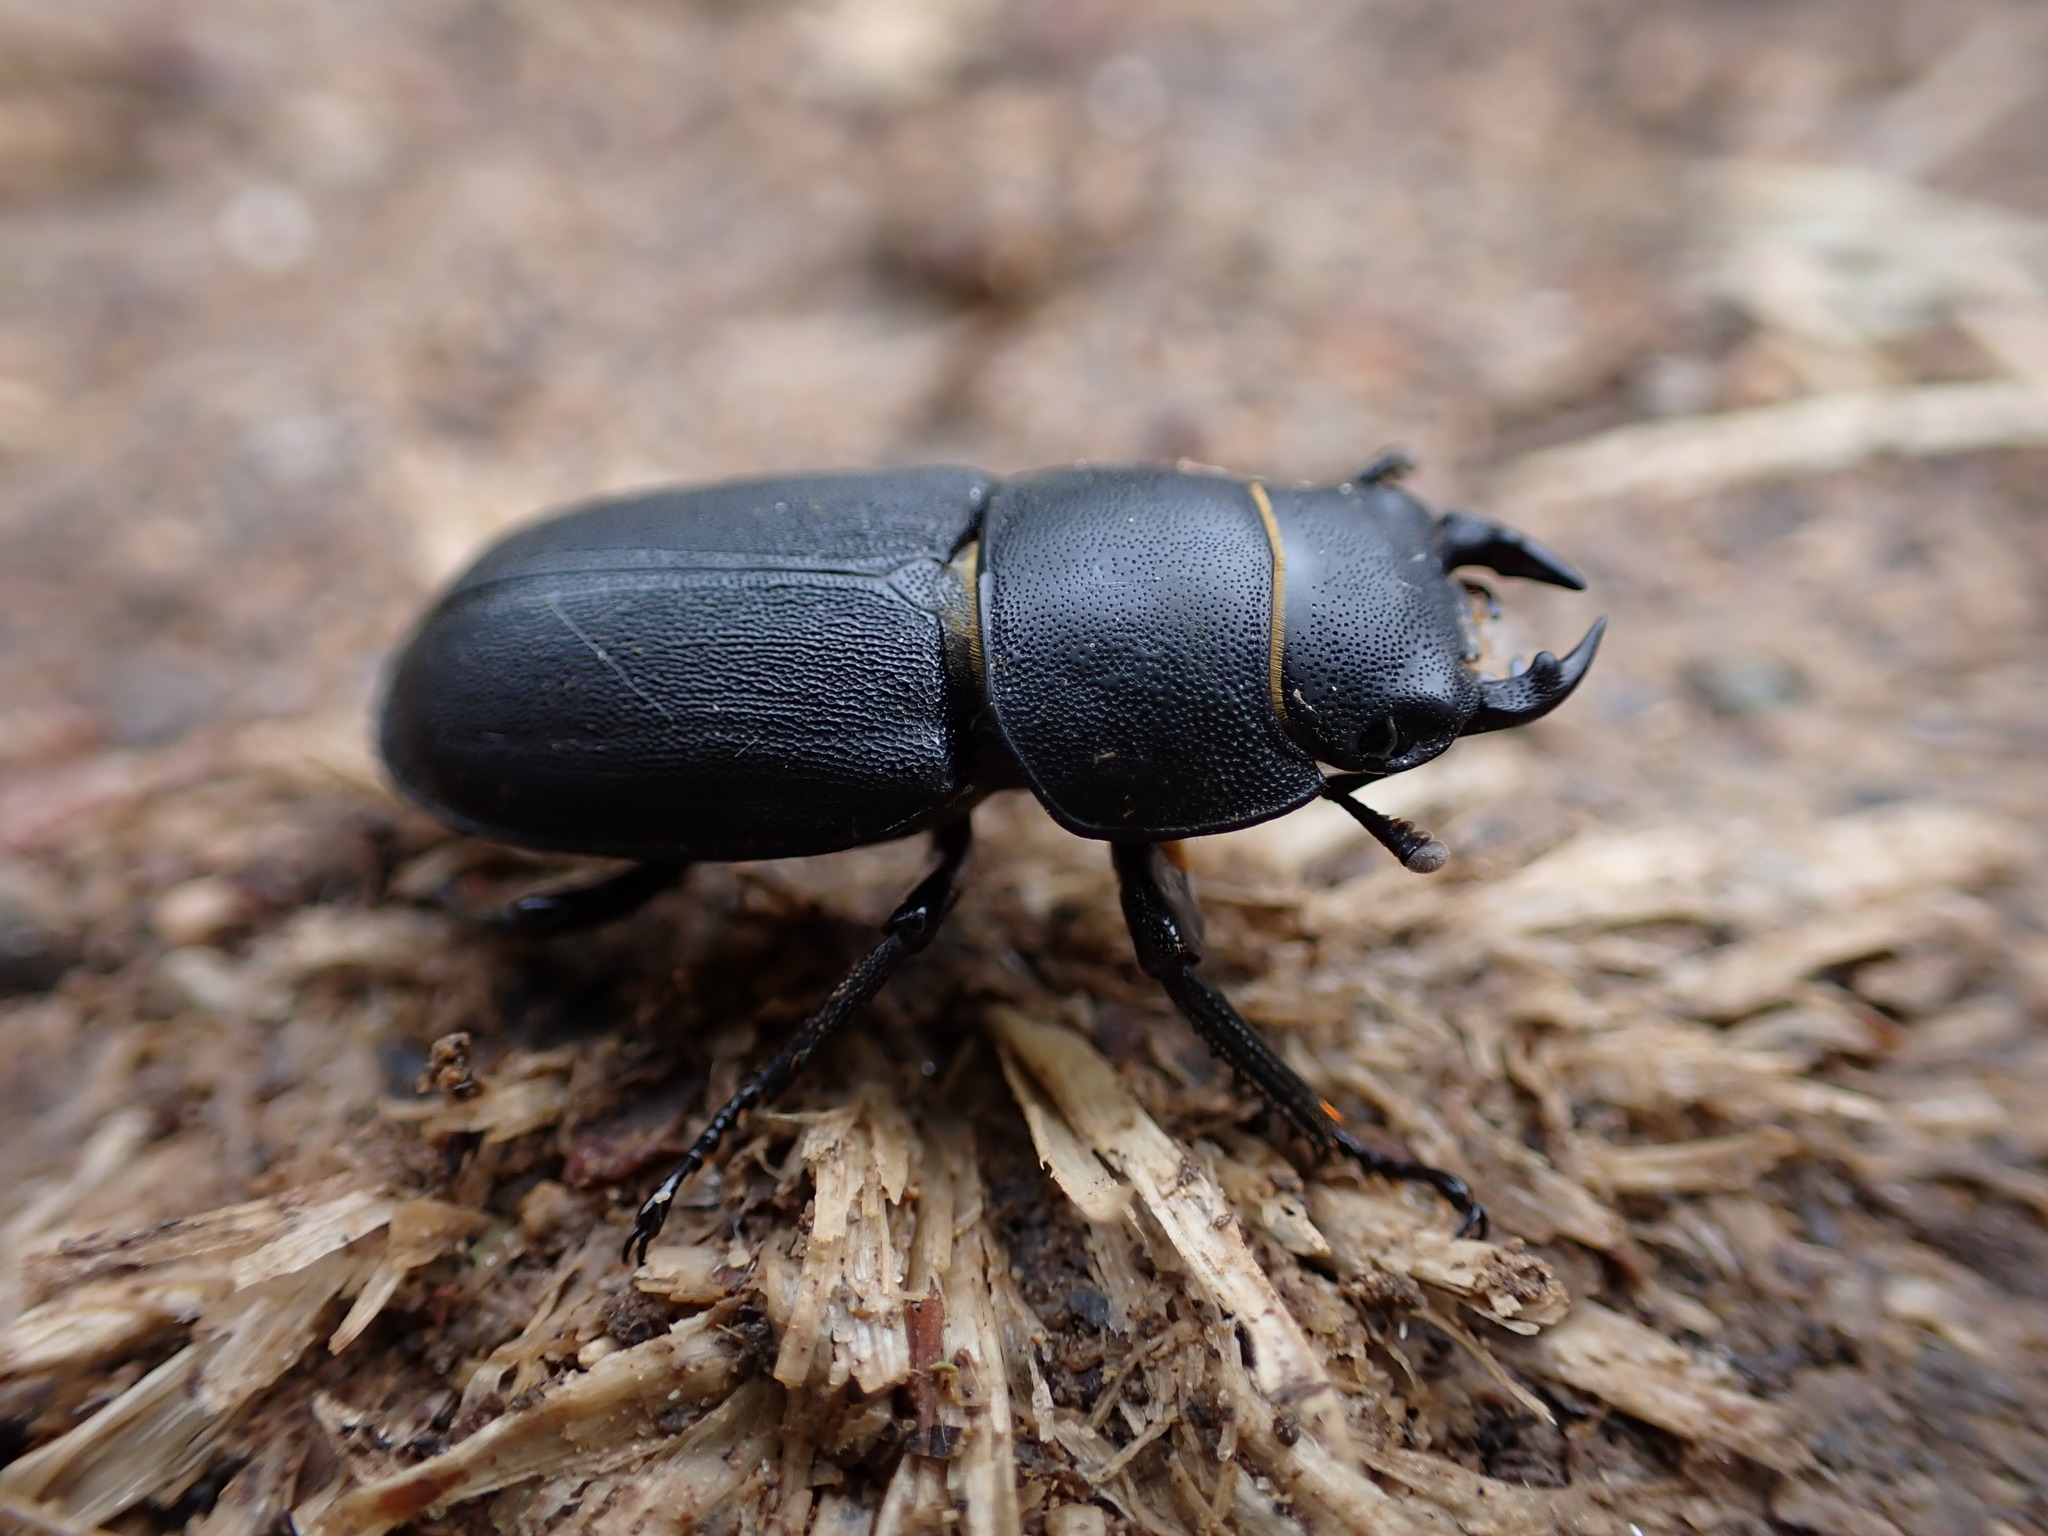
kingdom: Animalia
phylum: Arthropoda
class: Insecta
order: Coleoptera
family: Lucanidae
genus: Dorcus
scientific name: Dorcus parallelipipedus
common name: Lesser stag beetle
